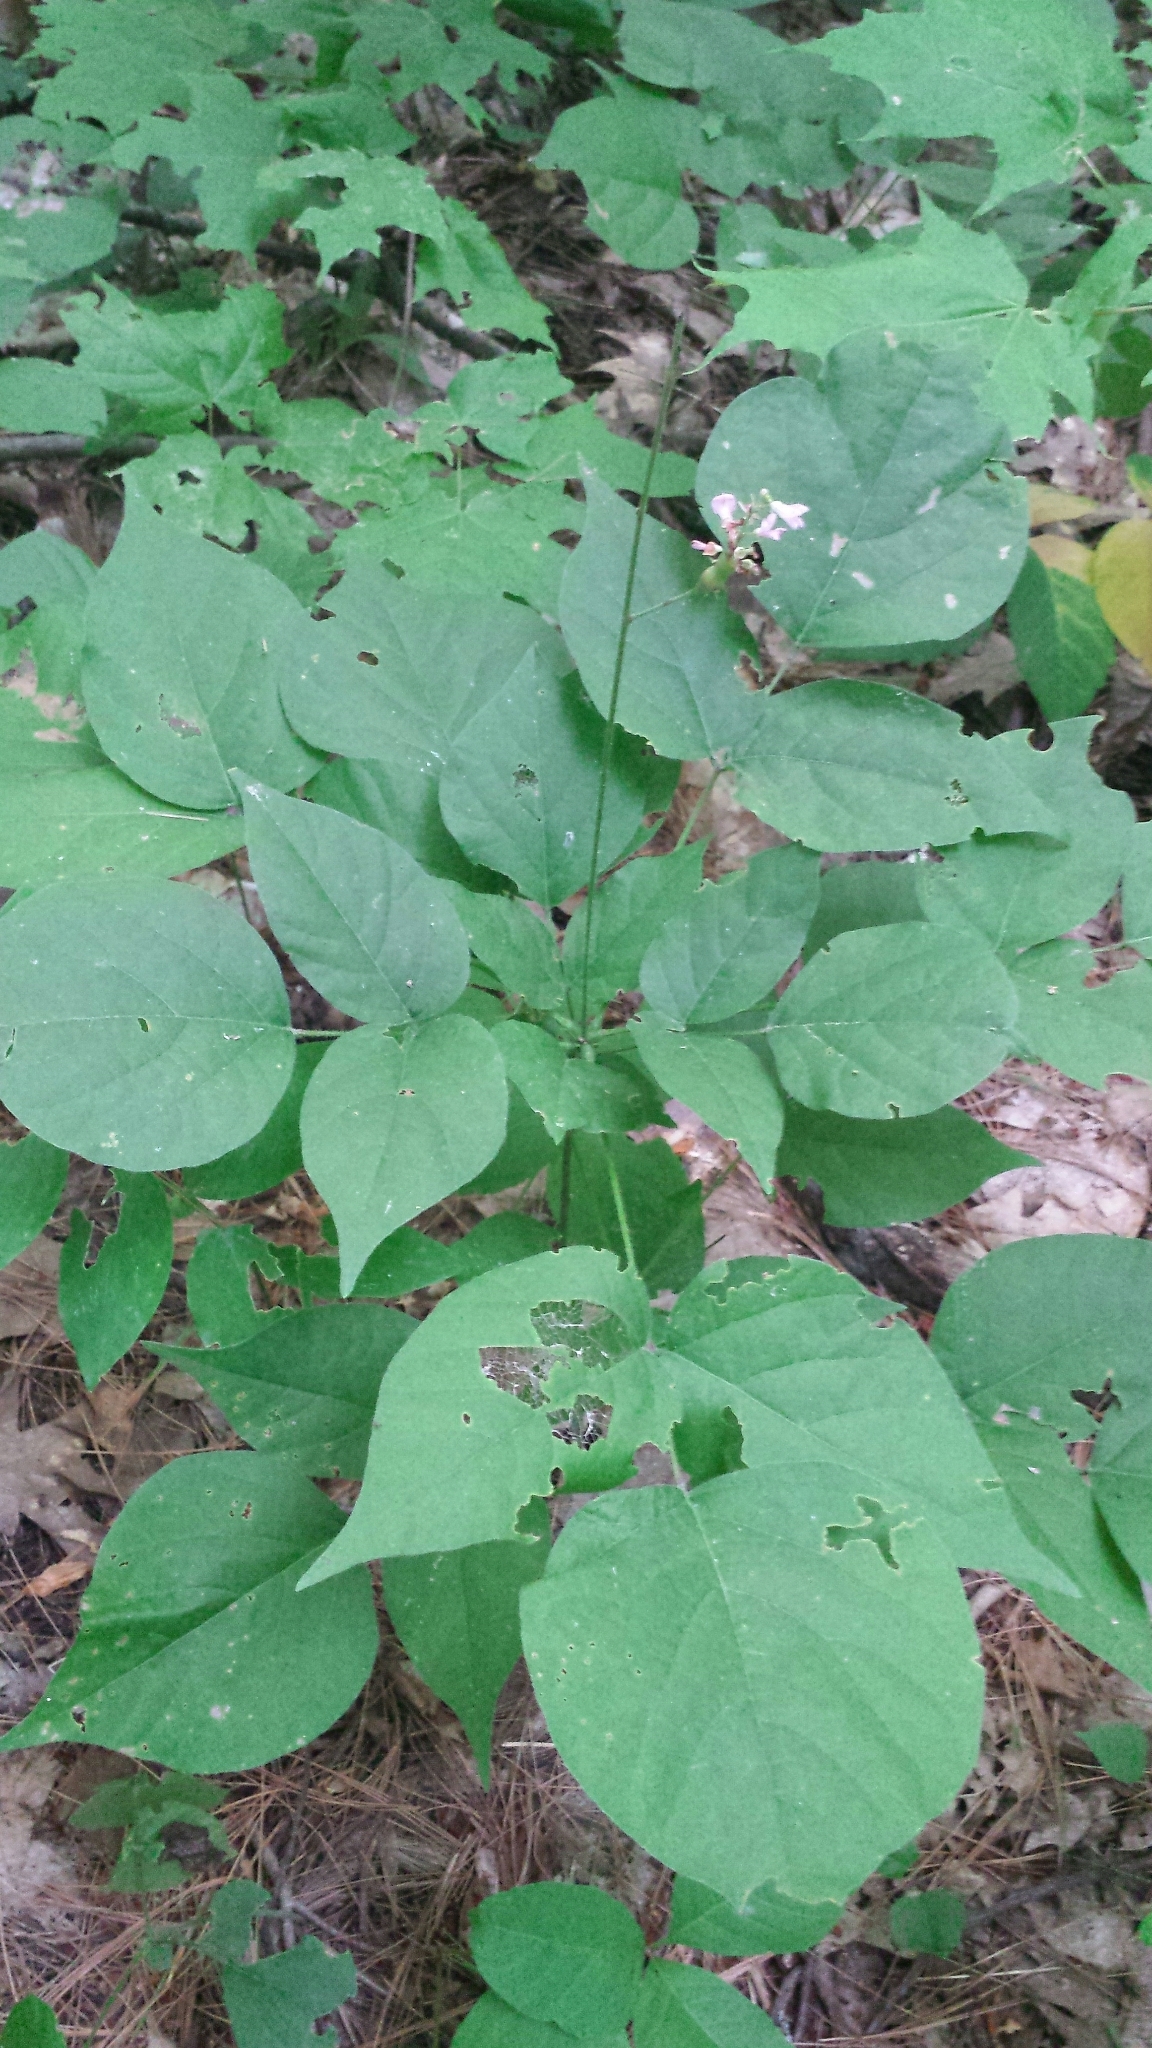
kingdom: Plantae
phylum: Tracheophyta
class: Magnoliopsida
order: Fabales
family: Fabaceae
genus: Hylodesmum
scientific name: Hylodesmum glutinosum
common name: Clustered-leaved tick-trefoil
